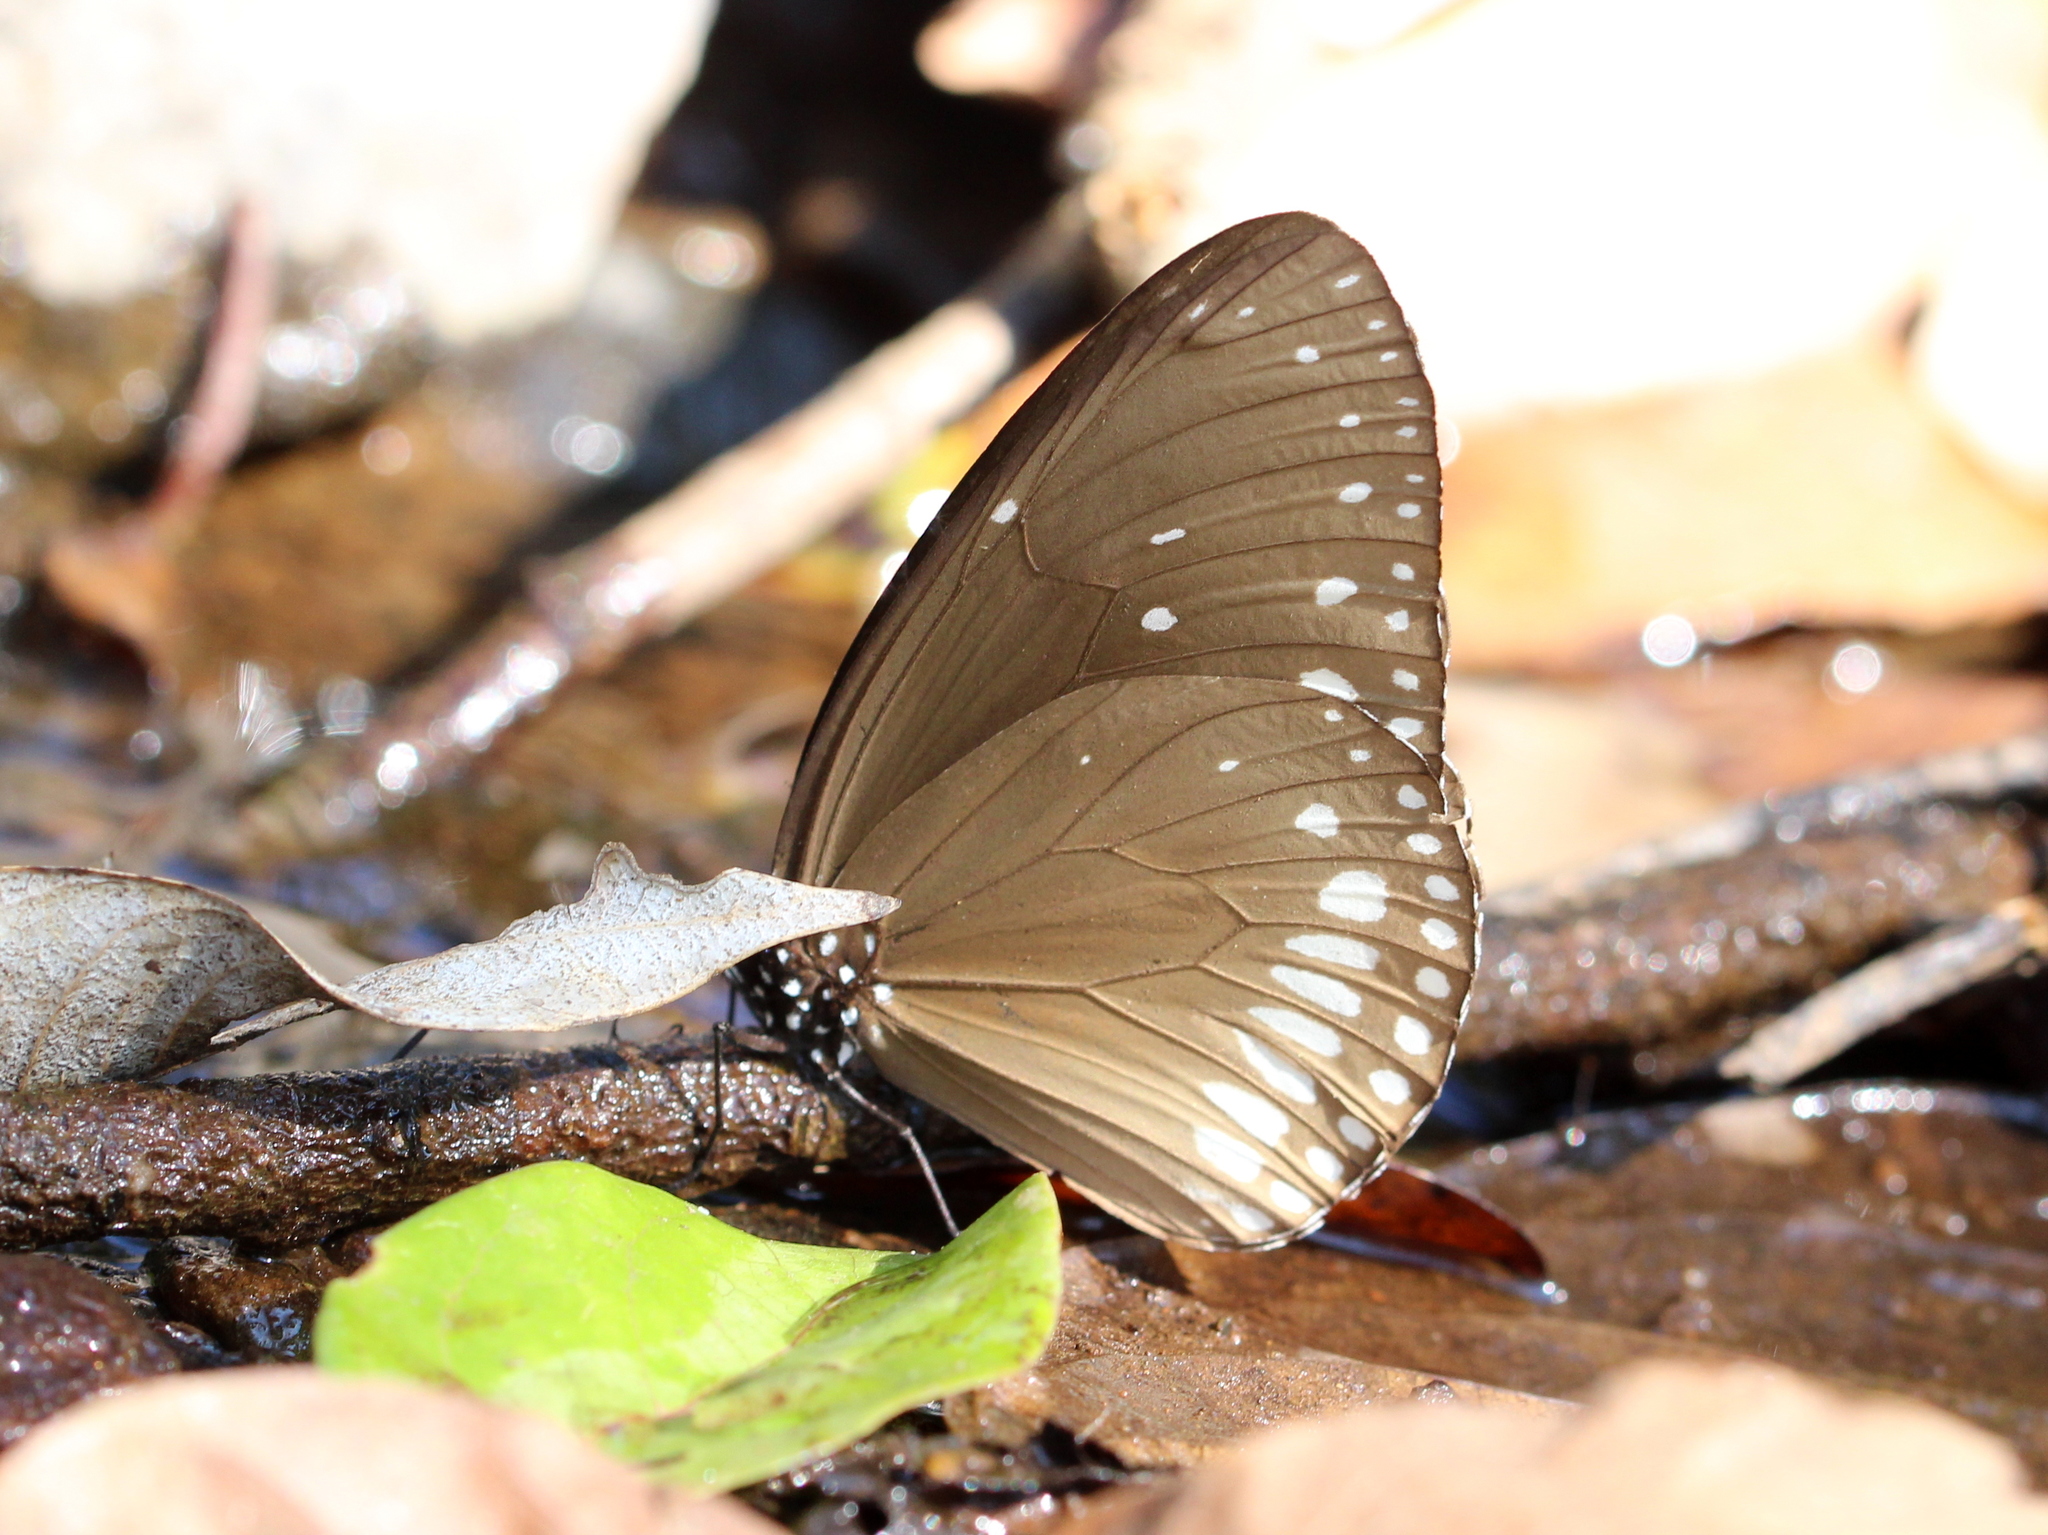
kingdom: Animalia
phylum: Arthropoda
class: Insecta
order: Lepidoptera
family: Nymphalidae
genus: Euploea
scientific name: Euploea klugii
